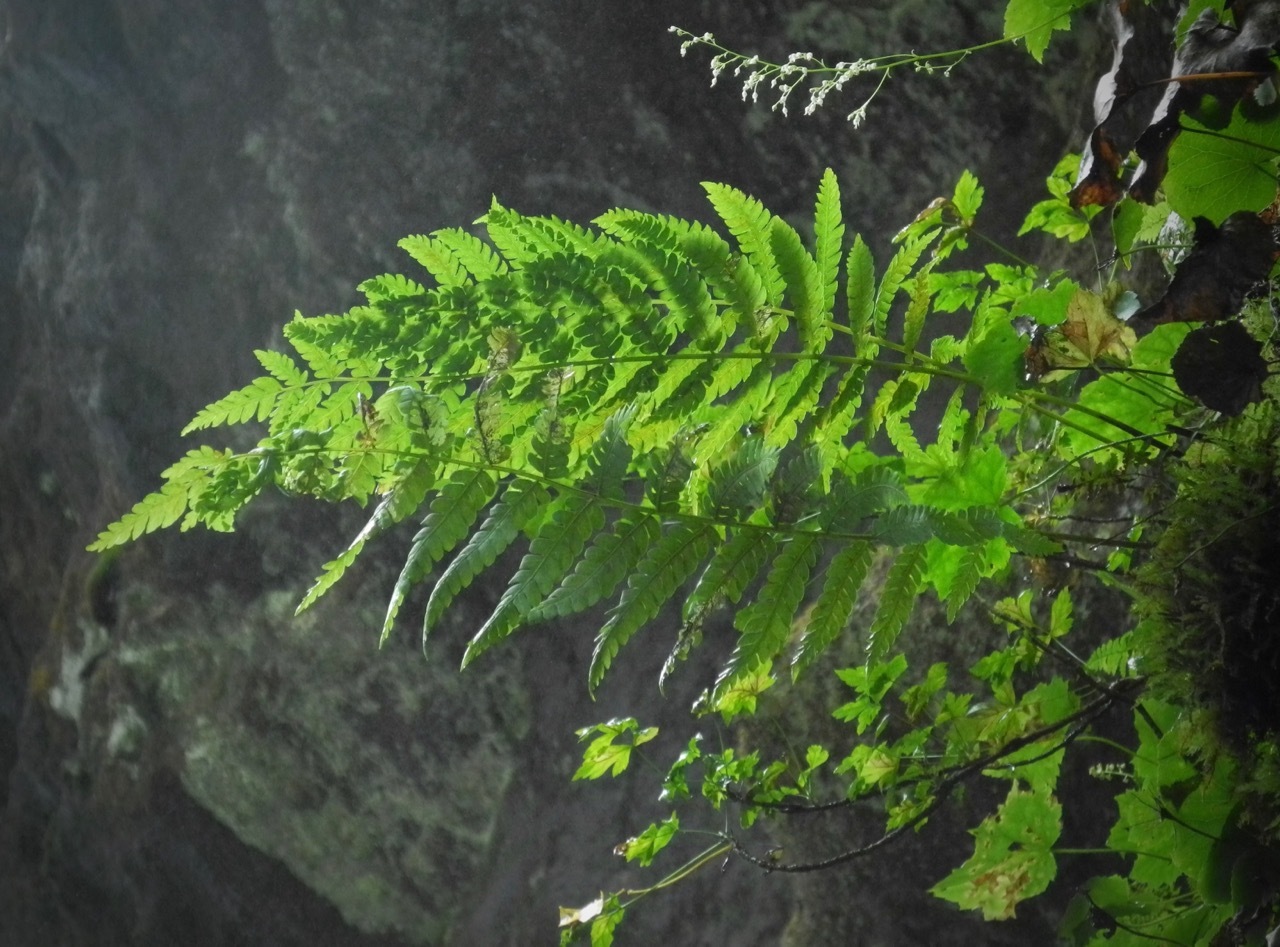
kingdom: Plantae
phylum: Tracheophyta
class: Polypodiopsida
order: Osmundales
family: Osmundaceae
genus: Osmundastrum
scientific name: Osmundastrum cinnamomeum
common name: Cinnamon fern
